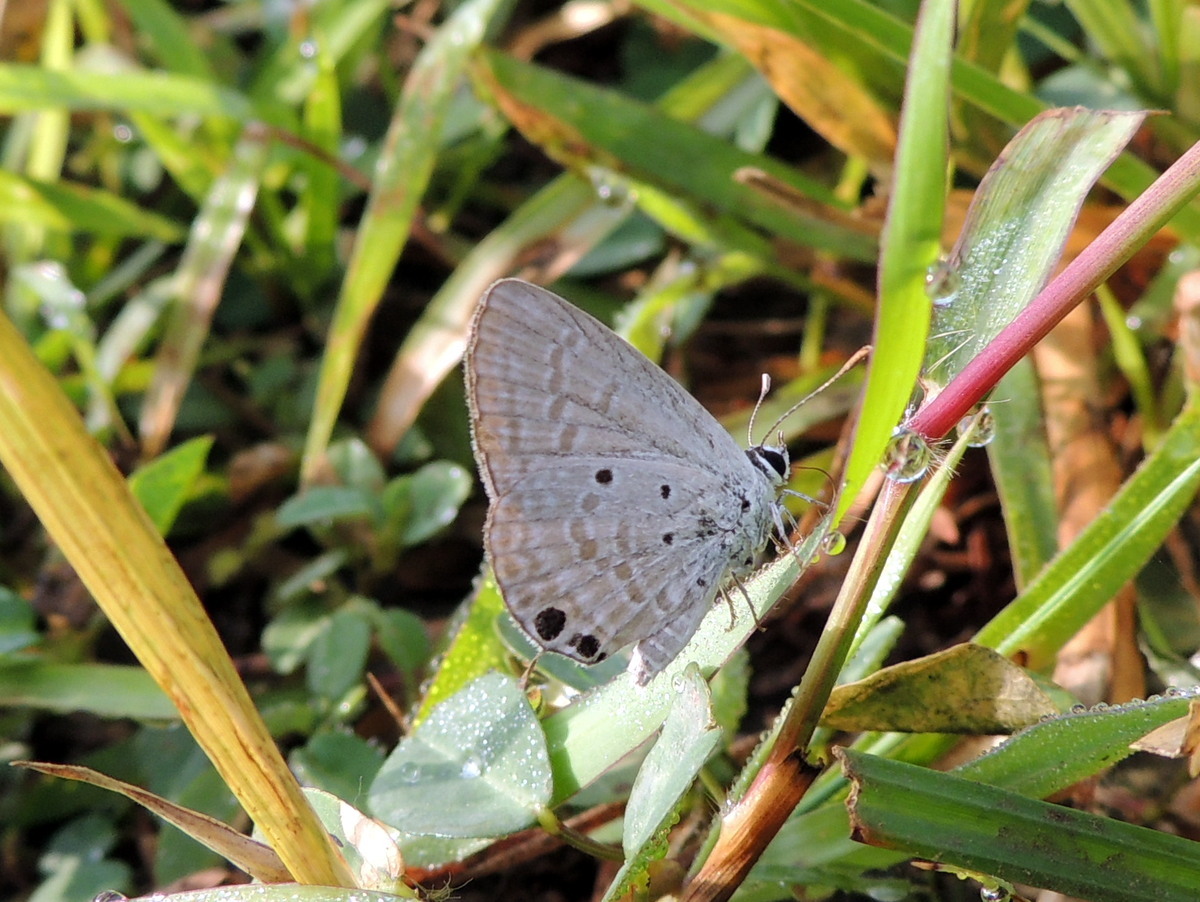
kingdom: Animalia
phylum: Arthropoda
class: Insecta
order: Lepidoptera
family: Lycaenidae
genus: Chilades
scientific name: Chilades parrhasius
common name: Small cupid
